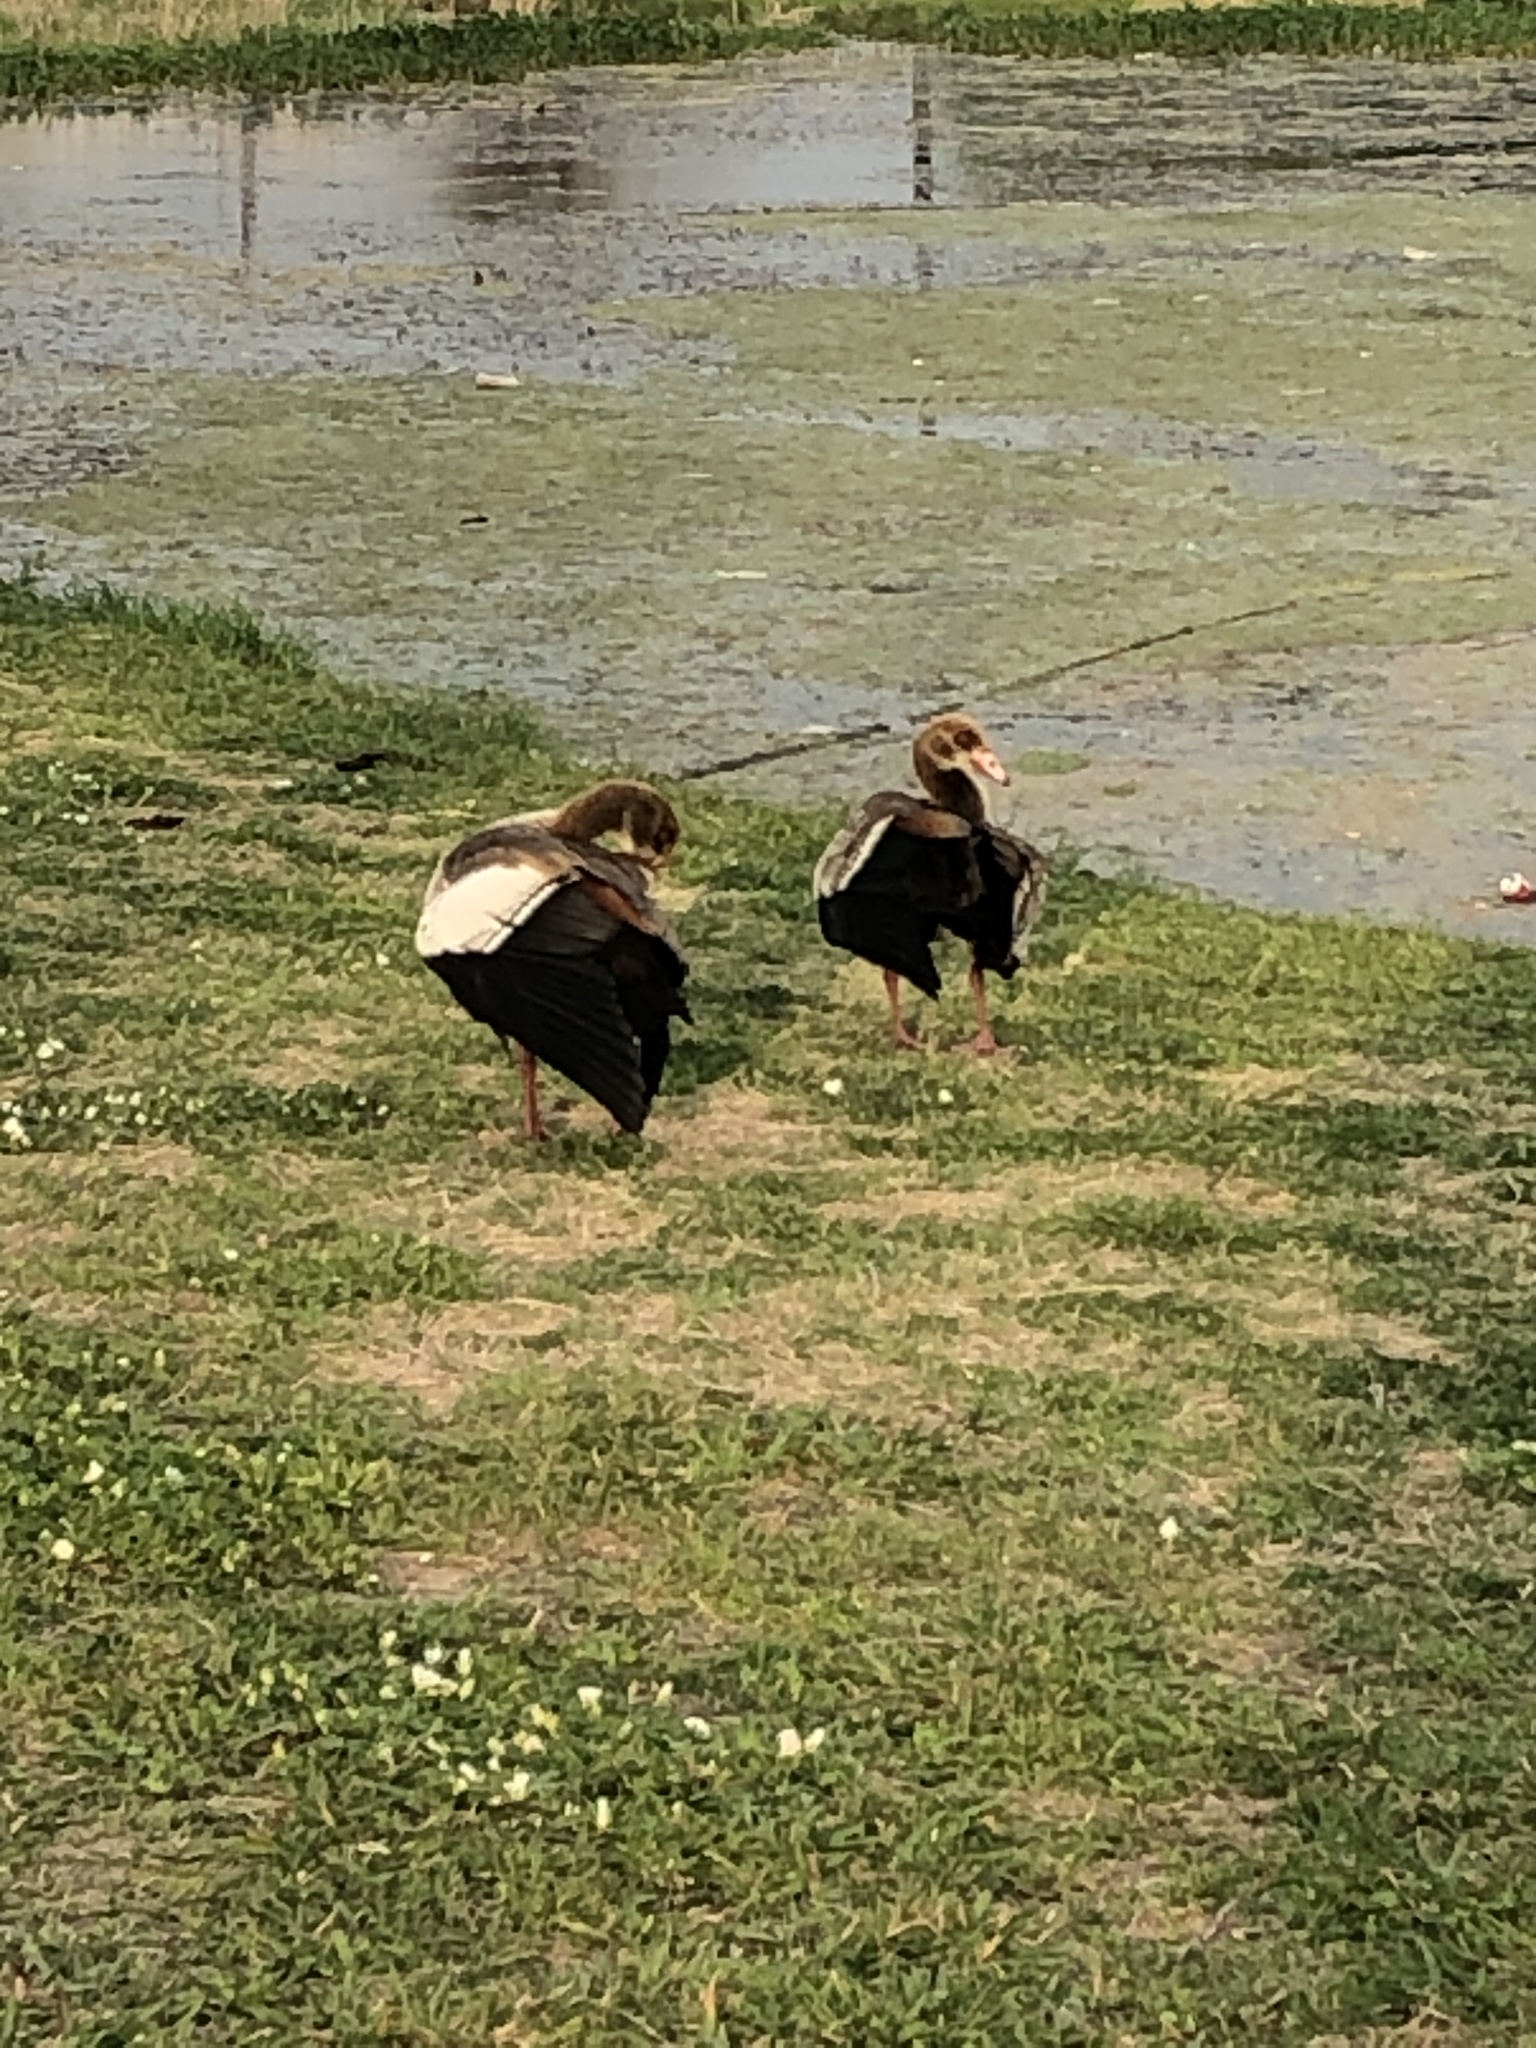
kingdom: Animalia
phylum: Chordata
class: Aves
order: Anseriformes
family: Anatidae
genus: Alopochen
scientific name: Alopochen aegyptiaca
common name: Egyptian goose
